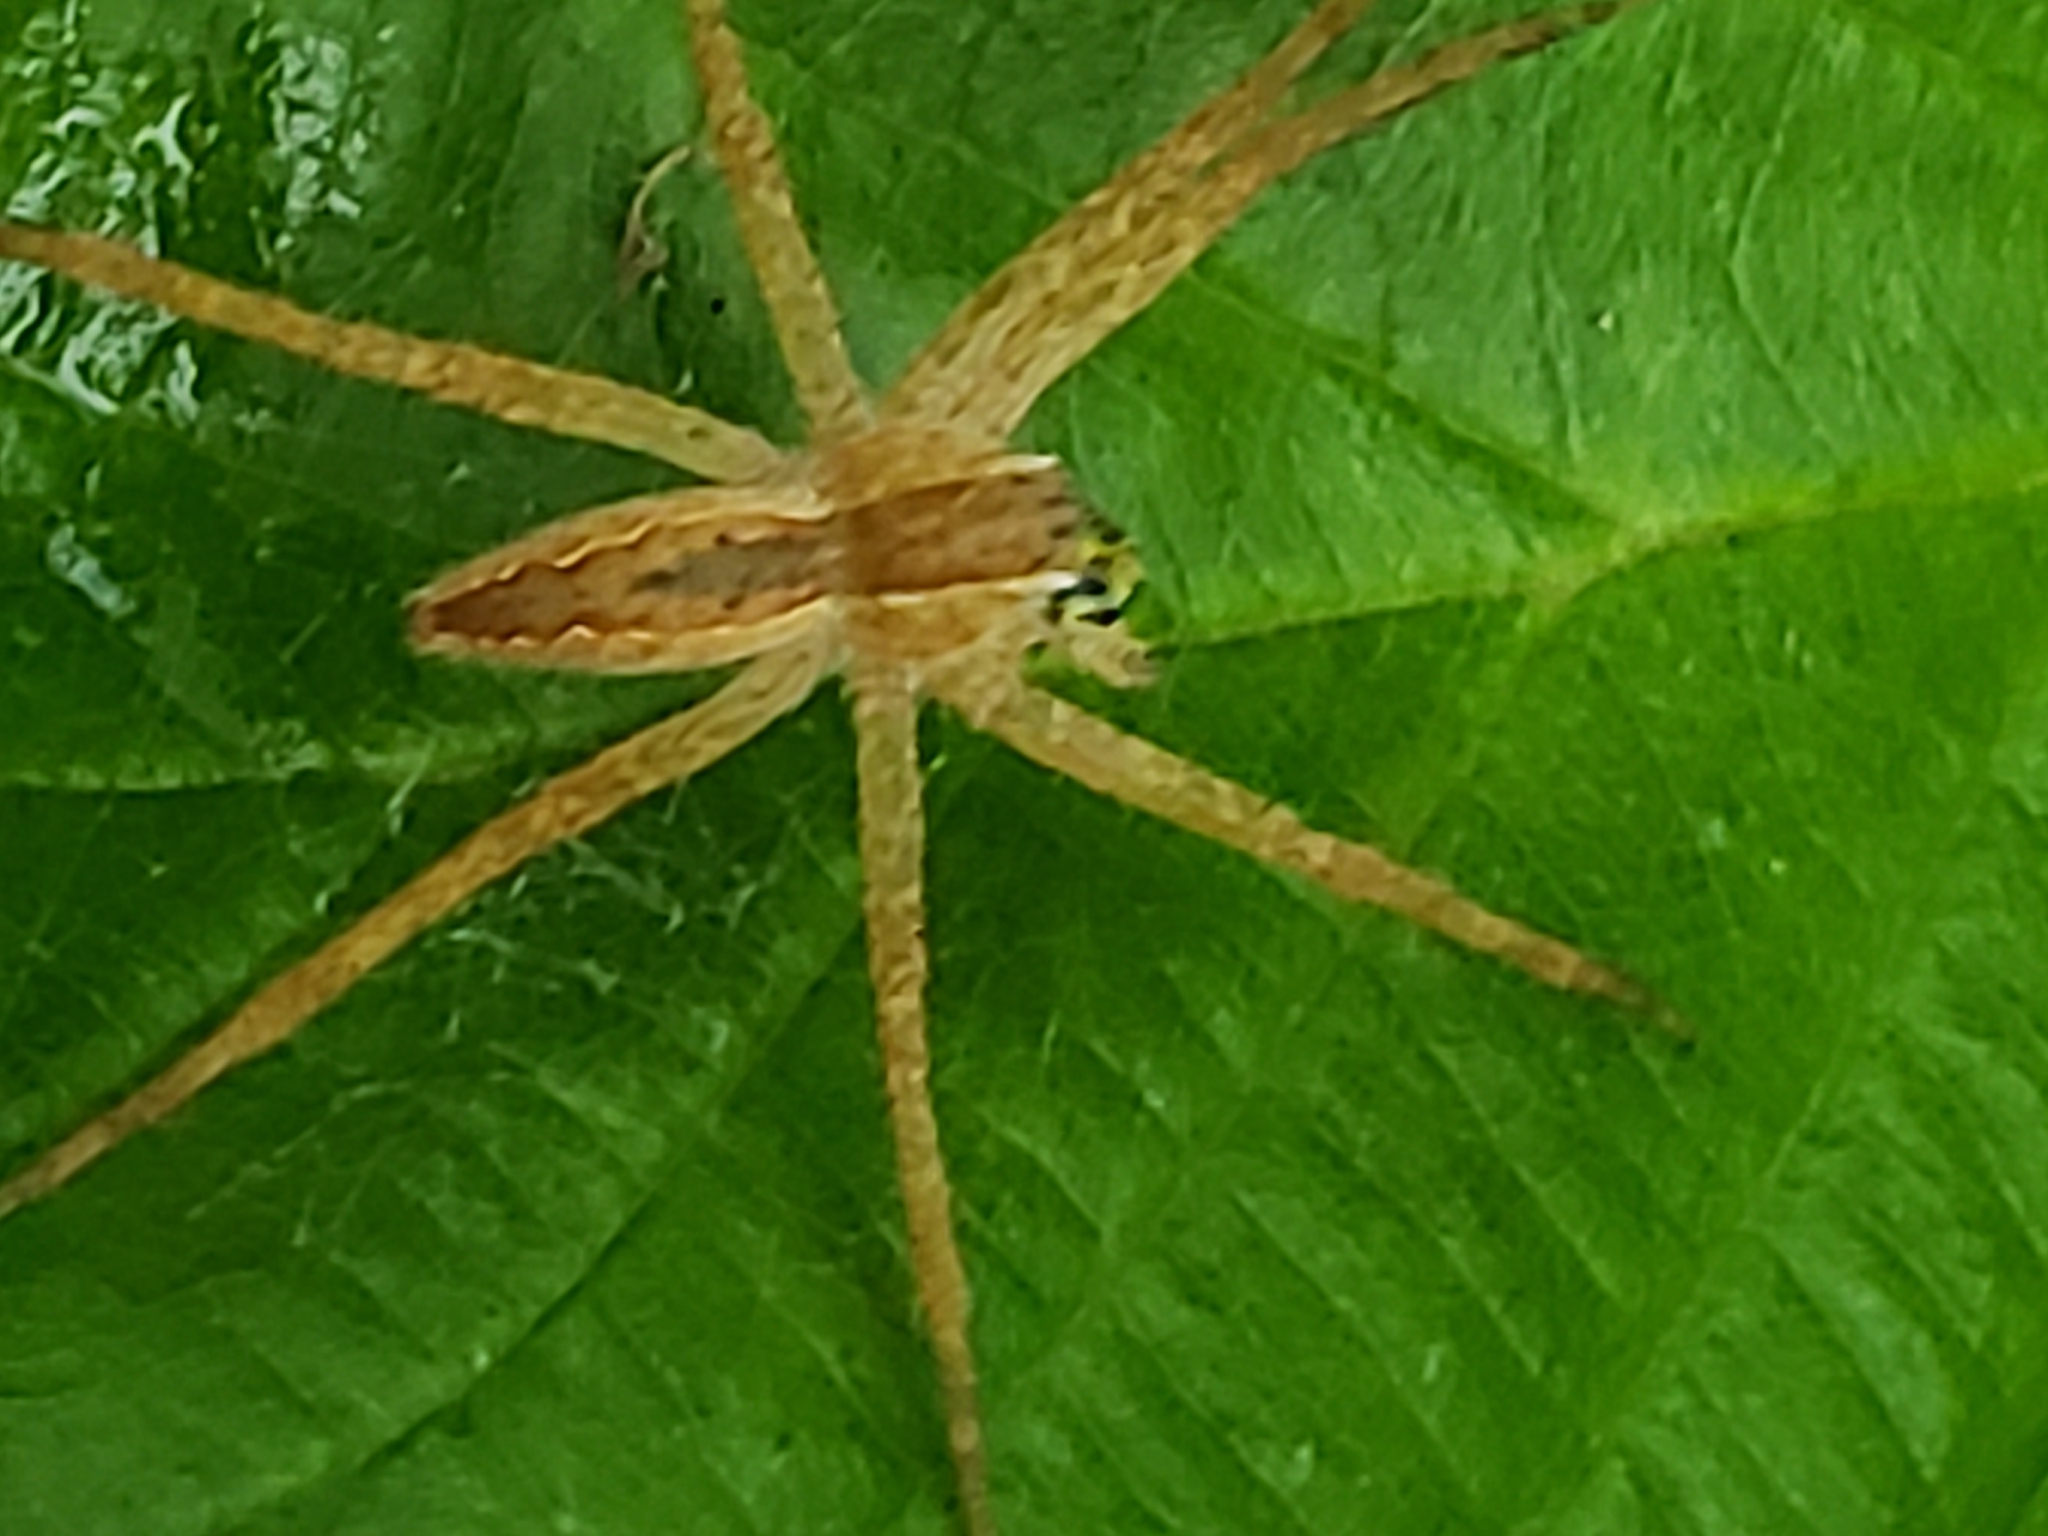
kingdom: Animalia
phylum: Arthropoda
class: Arachnida
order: Araneae
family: Pisauridae
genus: Pisaurina
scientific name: Pisaurina mira
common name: American nursery web spider
